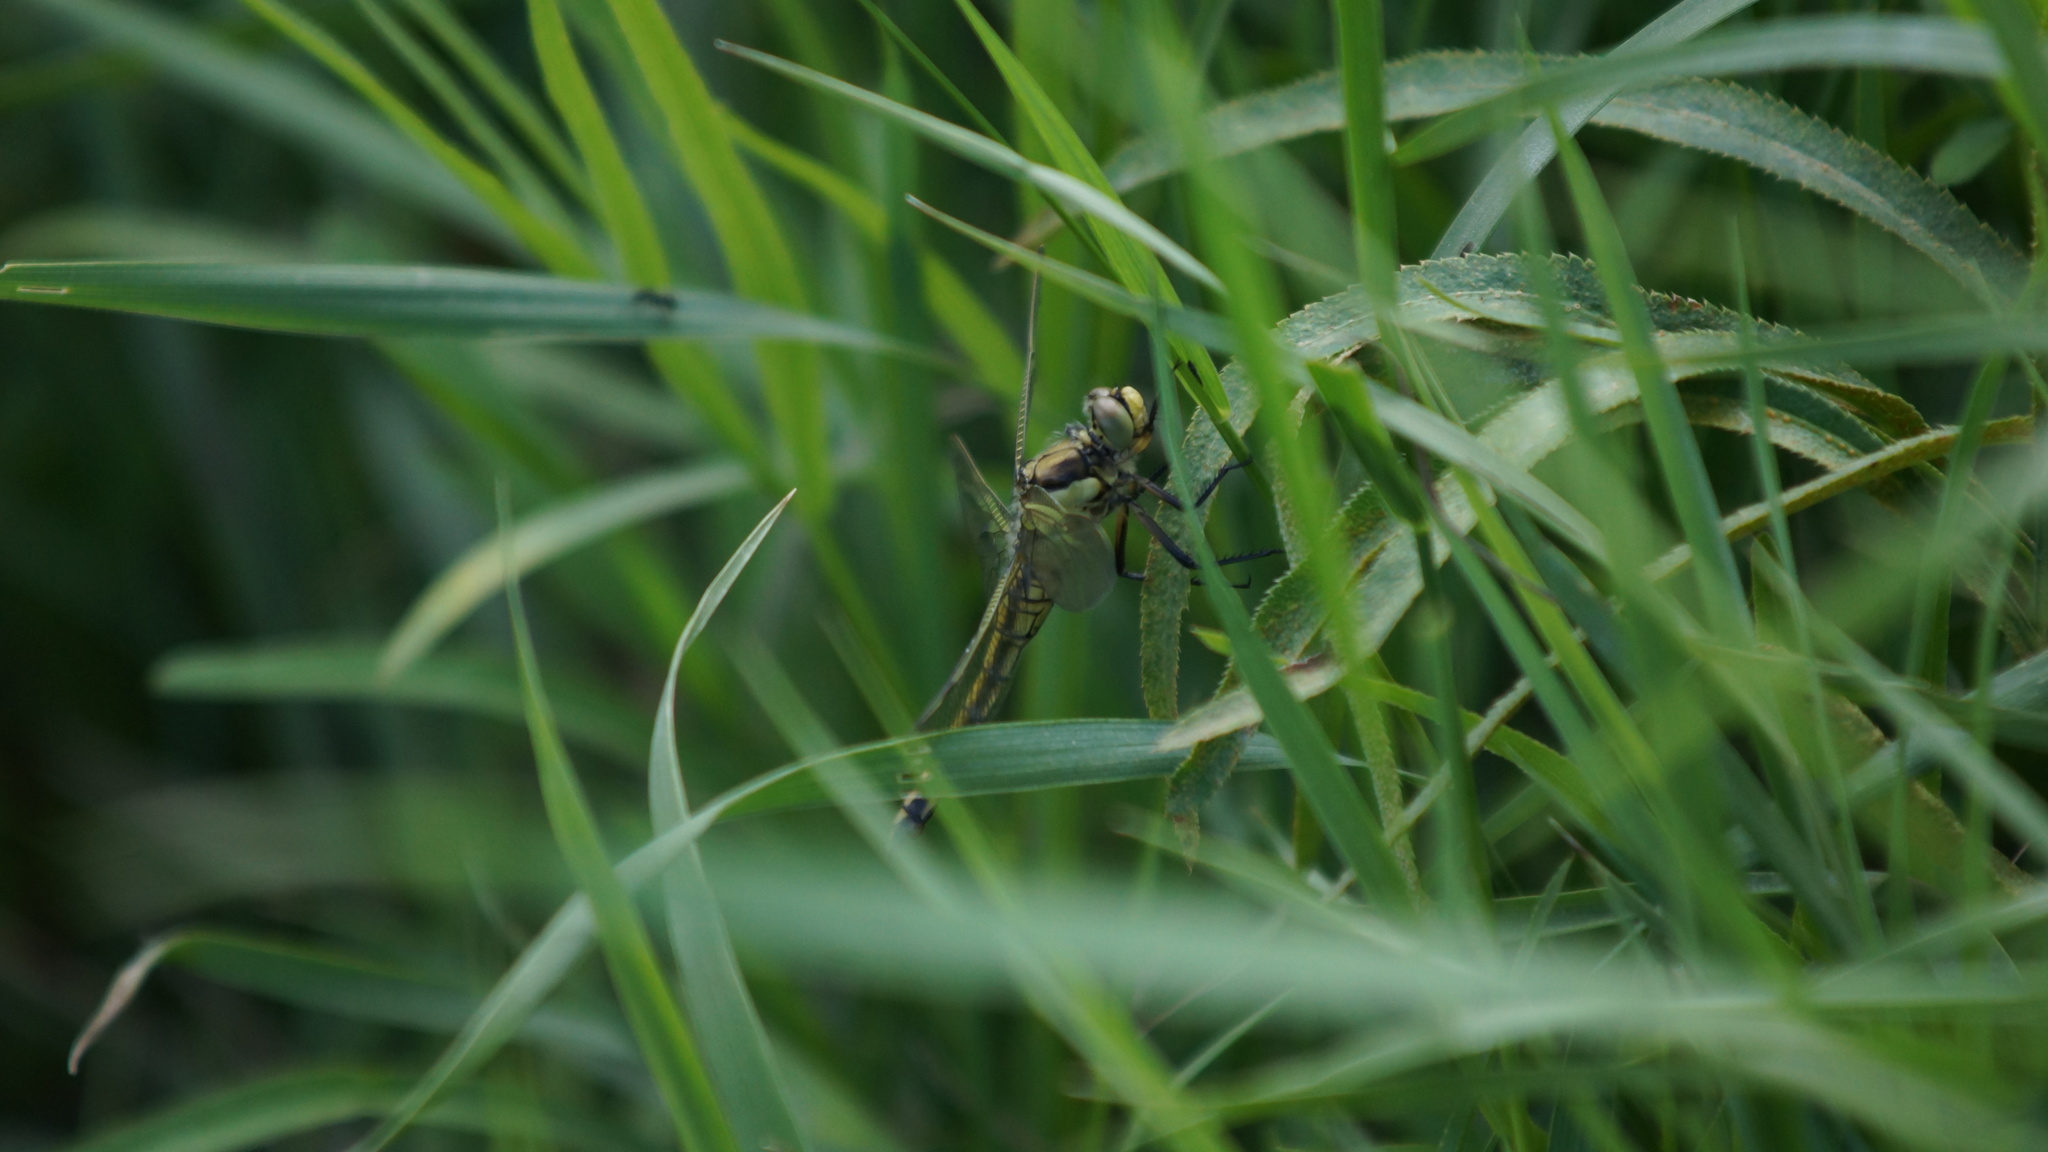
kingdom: Animalia
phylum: Arthropoda
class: Insecta
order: Odonata
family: Libellulidae
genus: Orthetrum
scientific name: Orthetrum cancellatum
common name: Black-tailed skimmer
